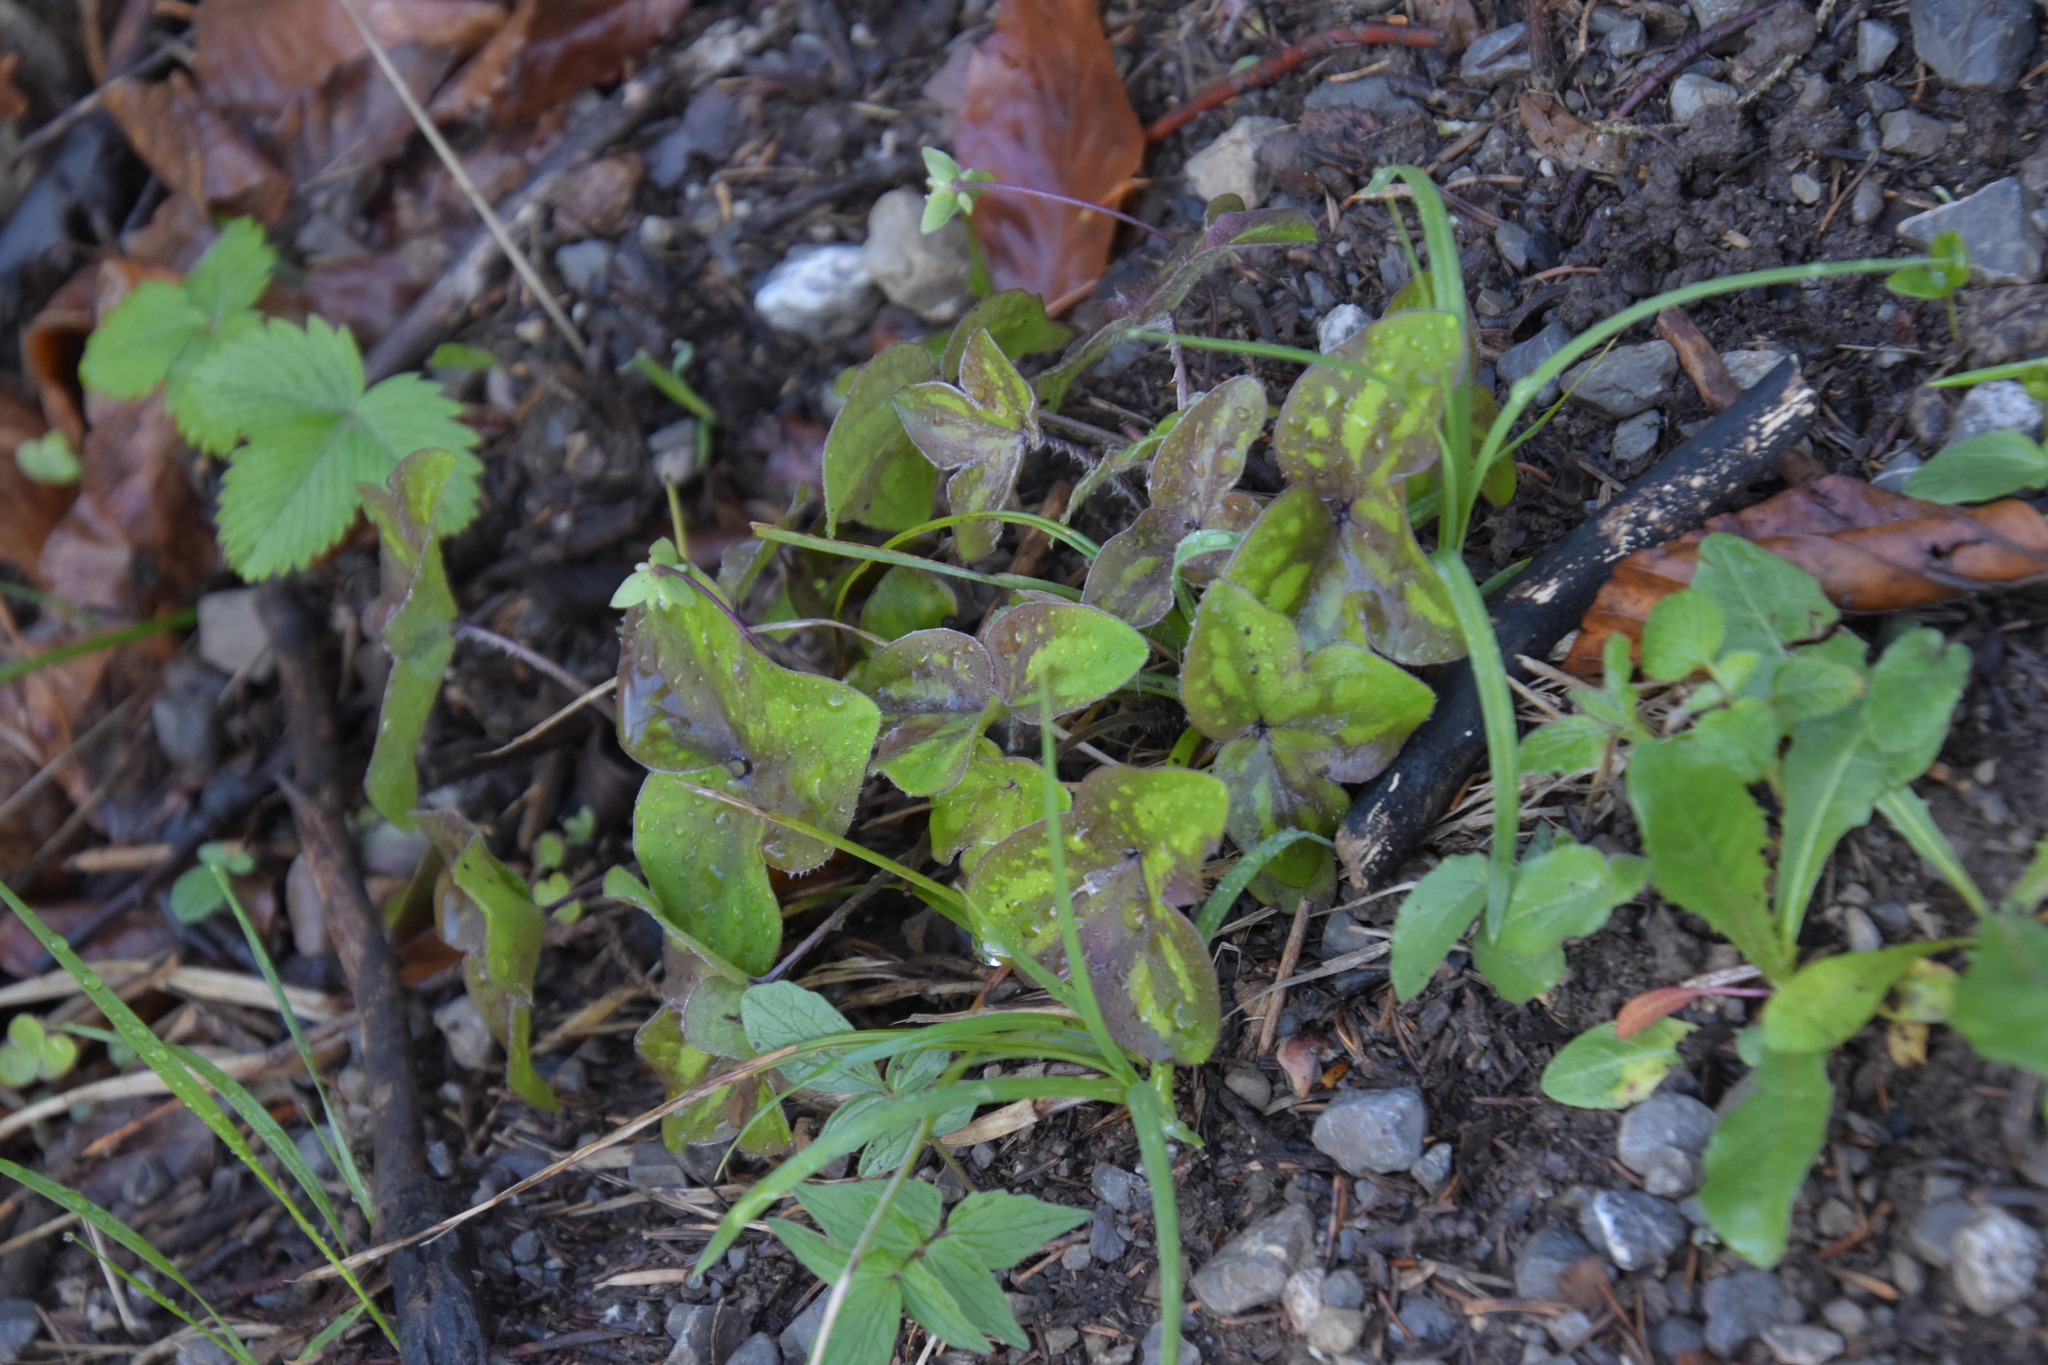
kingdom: Plantae
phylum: Tracheophyta
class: Magnoliopsida
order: Ranunculales
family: Ranunculaceae
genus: Hepatica
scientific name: Hepatica nobilis
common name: Liverleaf
